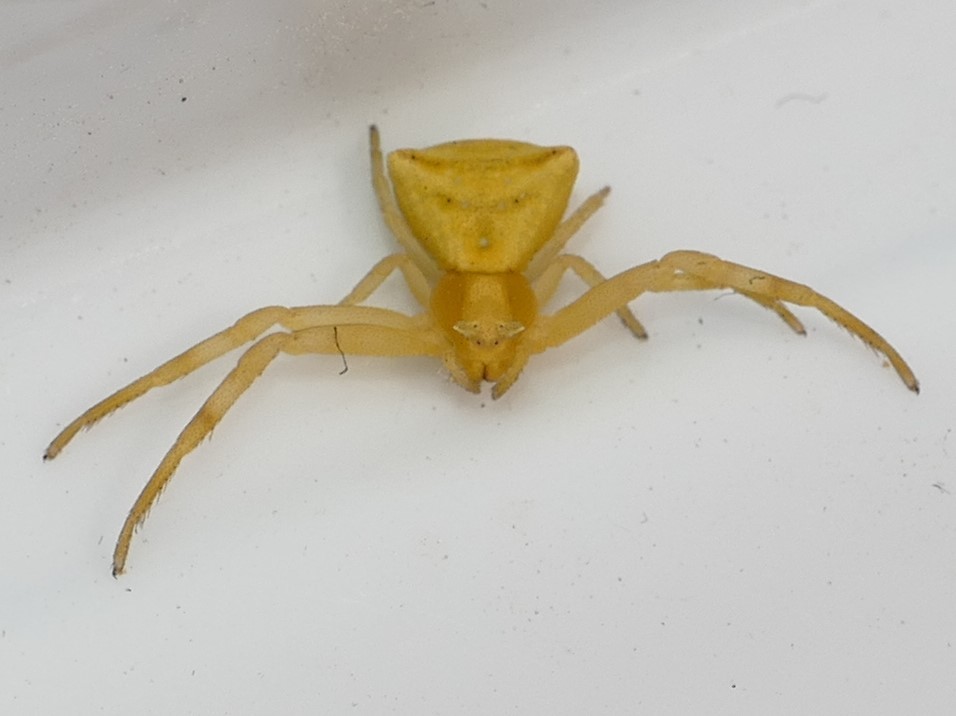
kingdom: Animalia
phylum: Arthropoda
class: Arachnida
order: Araneae
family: Thomisidae
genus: Thomisus
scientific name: Thomisus onustus
